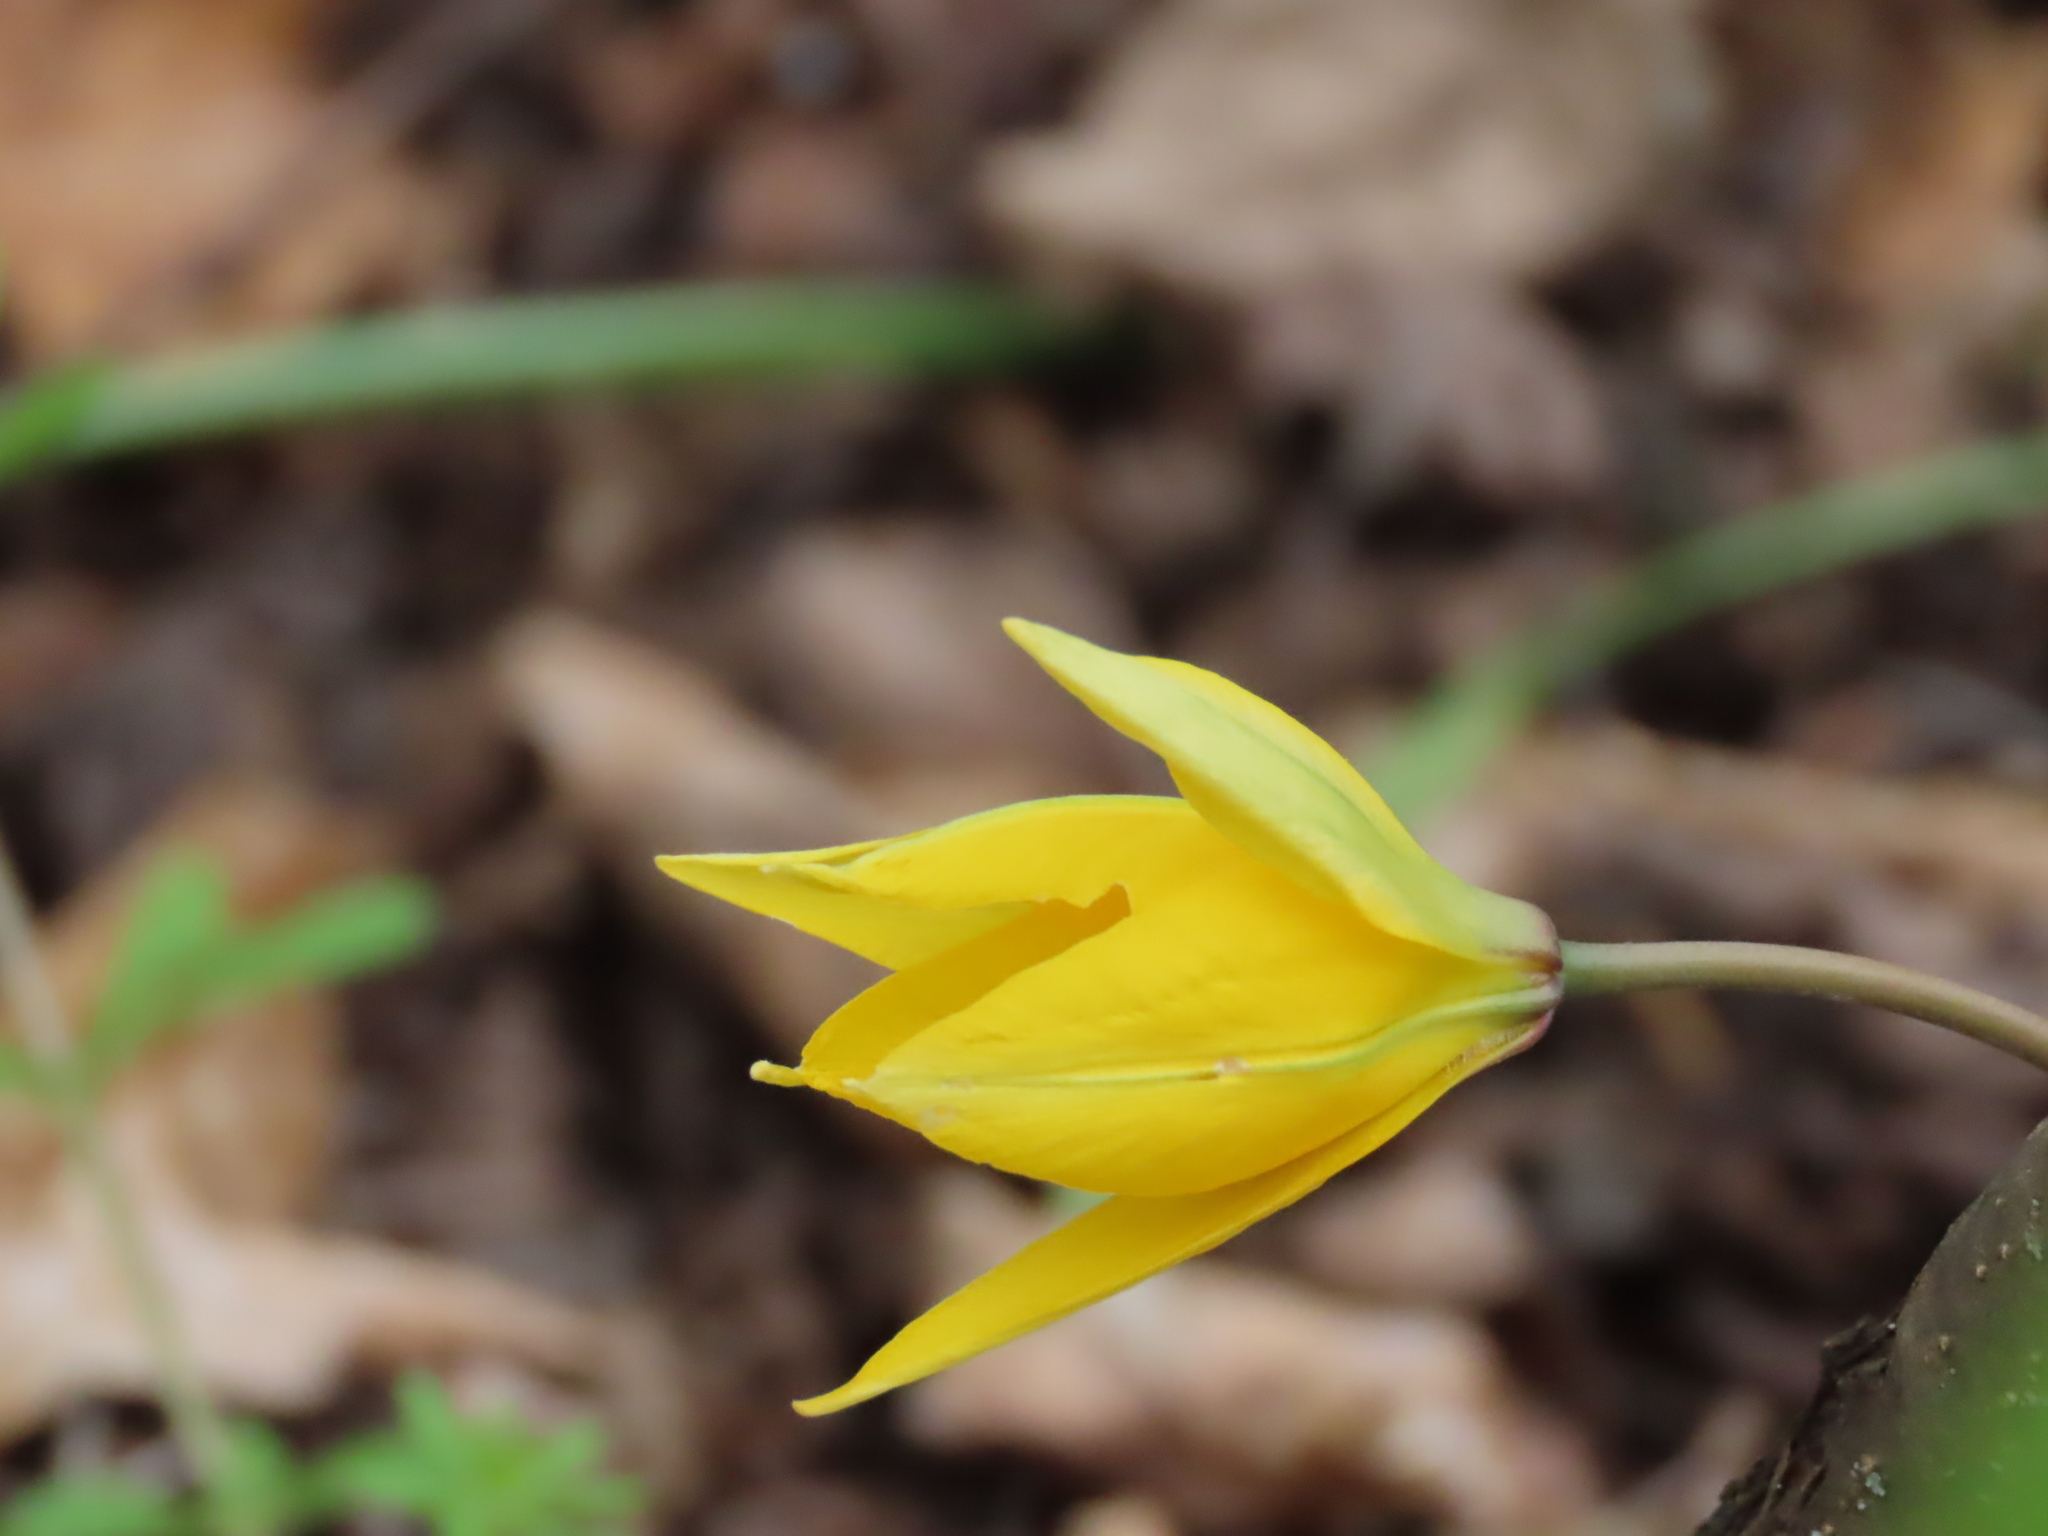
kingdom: Plantae
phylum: Tracheophyta
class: Liliopsida
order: Liliales
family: Liliaceae
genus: Tulipa
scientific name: Tulipa sylvestris
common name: Wild tulip
